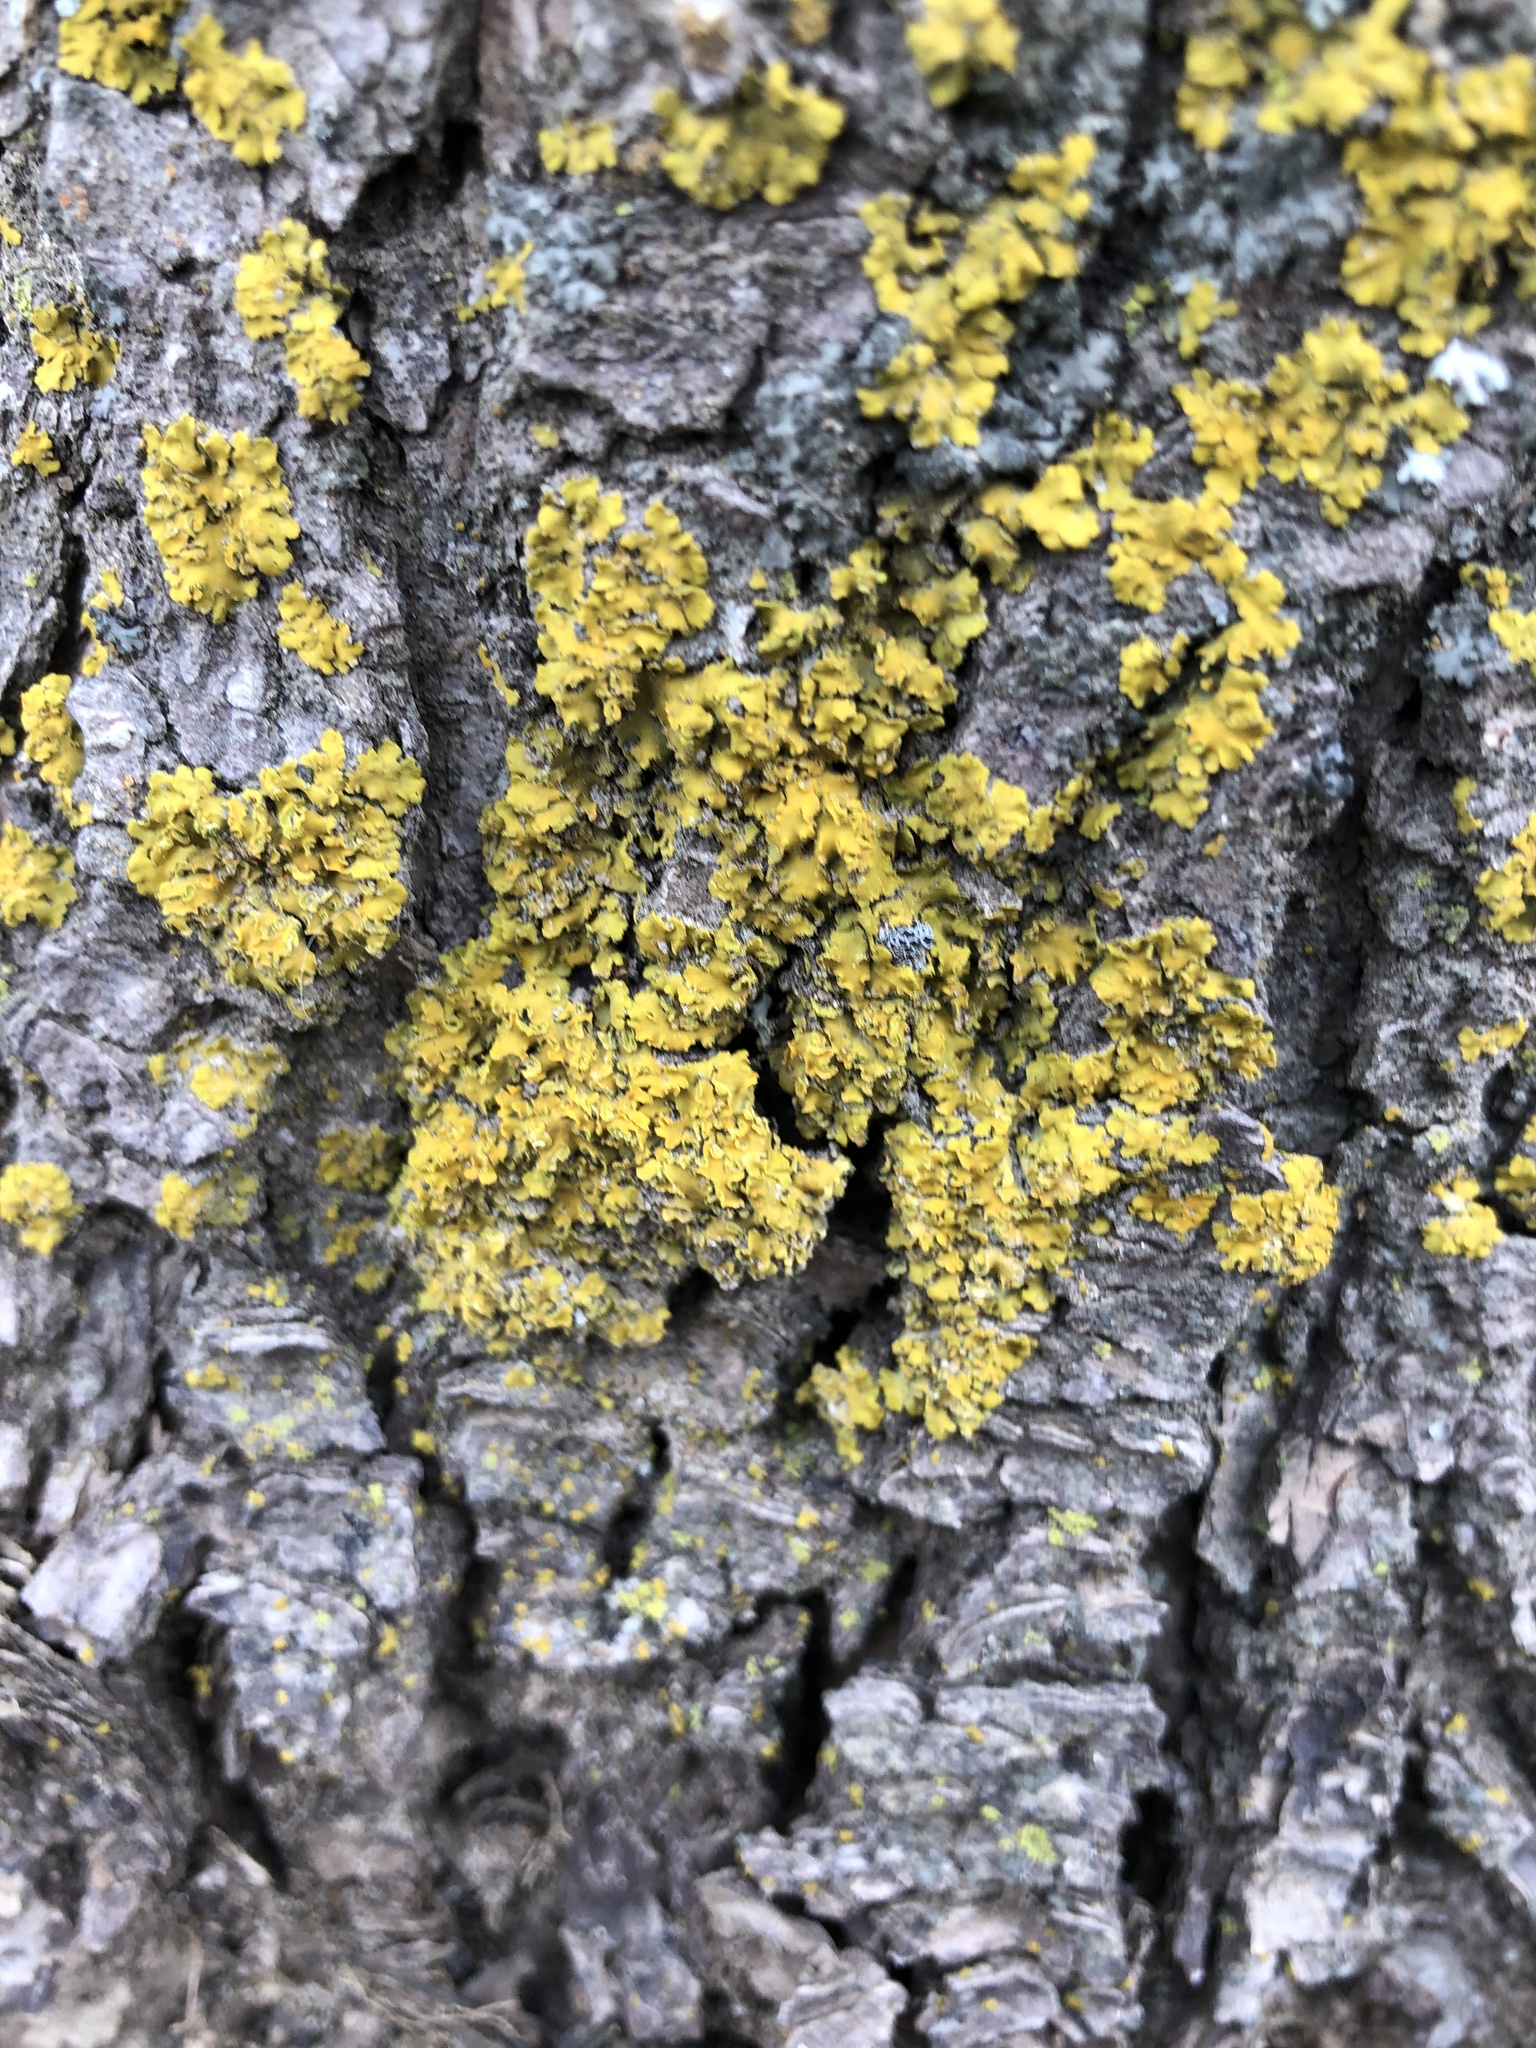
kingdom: Fungi
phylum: Ascomycota
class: Lecanoromycetes
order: Teloschistales
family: Teloschistaceae
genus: Oxneria
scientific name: Oxneria fallax
